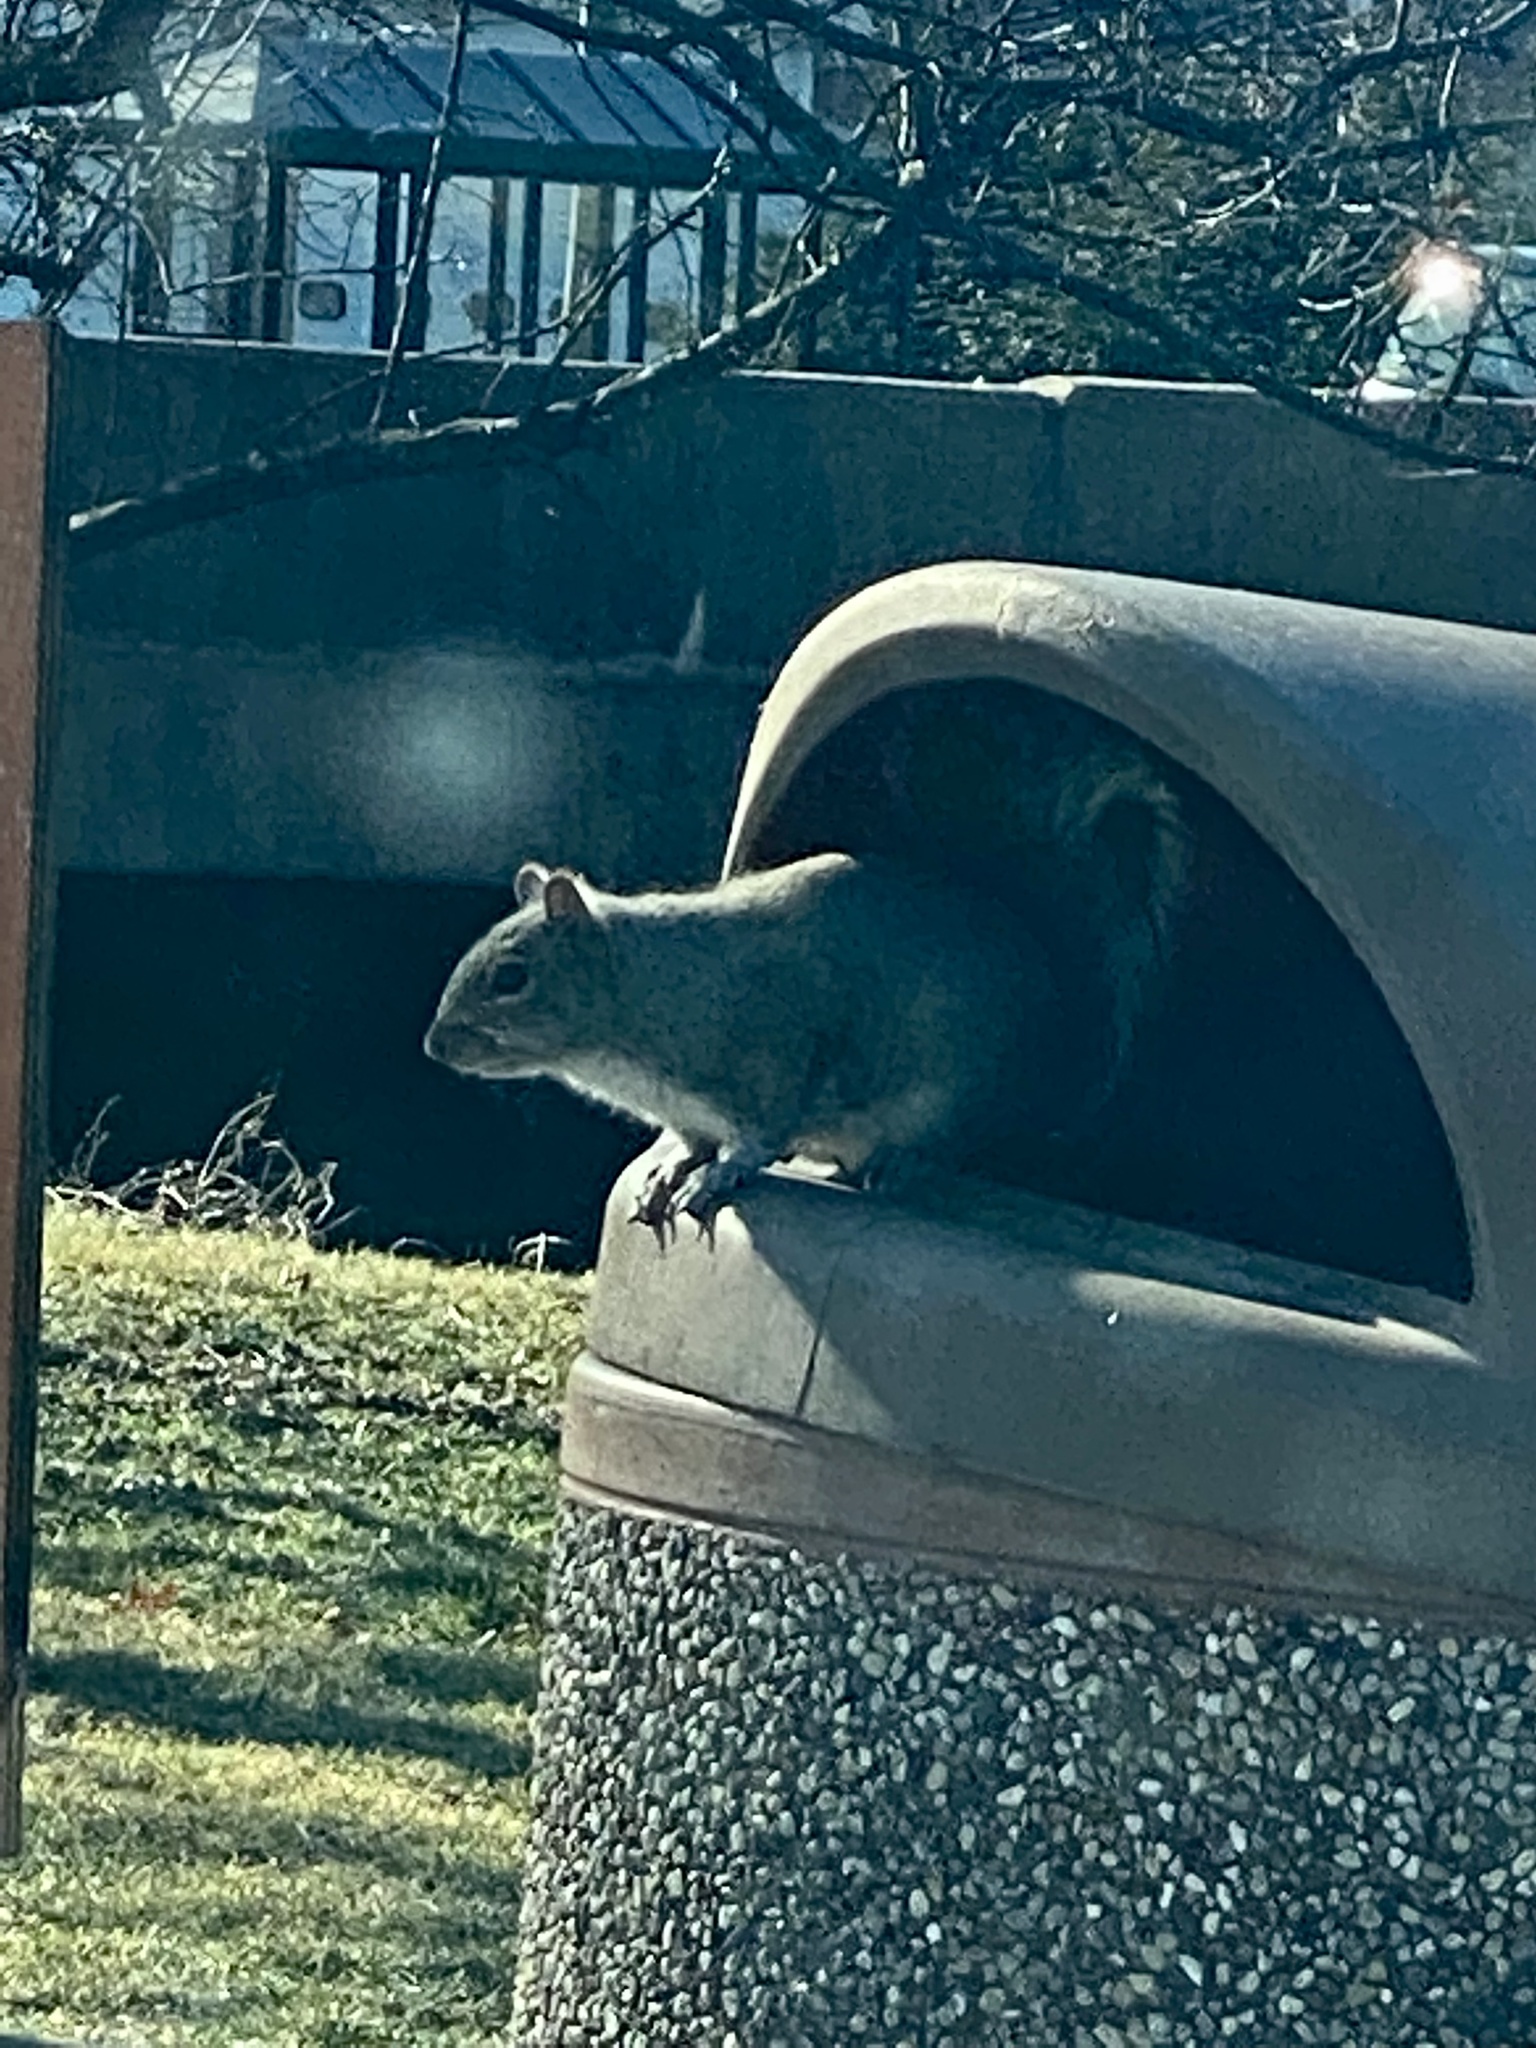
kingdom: Animalia
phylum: Chordata
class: Mammalia
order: Rodentia
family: Sciuridae
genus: Sciurus
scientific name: Sciurus carolinensis
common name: Eastern gray squirrel
